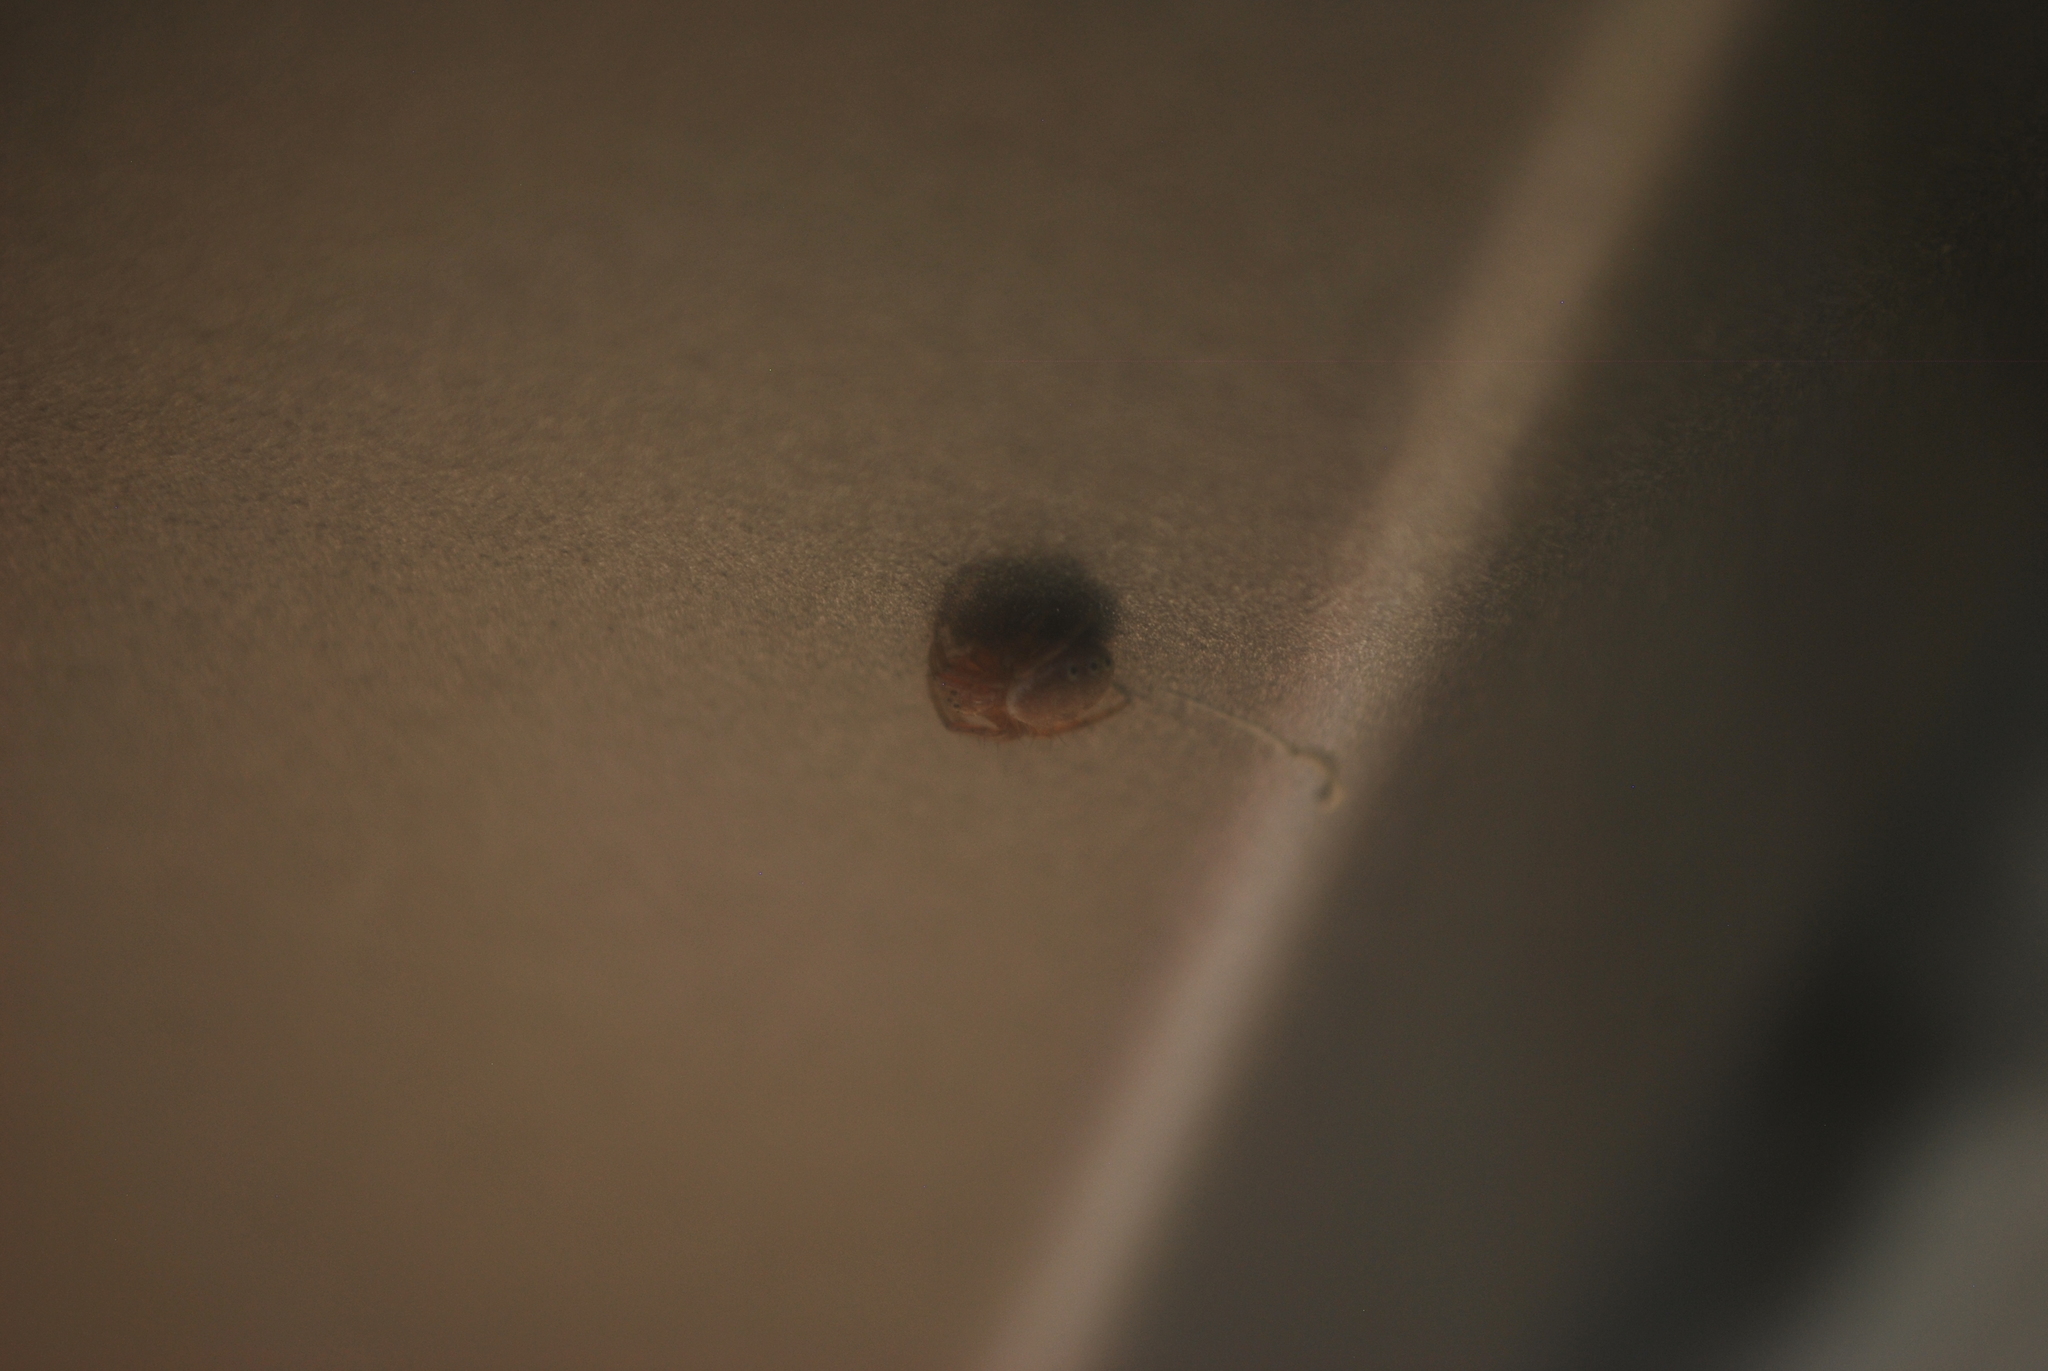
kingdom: Animalia
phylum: Arthropoda
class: Arachnida
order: Araneae
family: Araneidae
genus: Araniella
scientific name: Araniella displicata
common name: Sixspotted orb weaver
